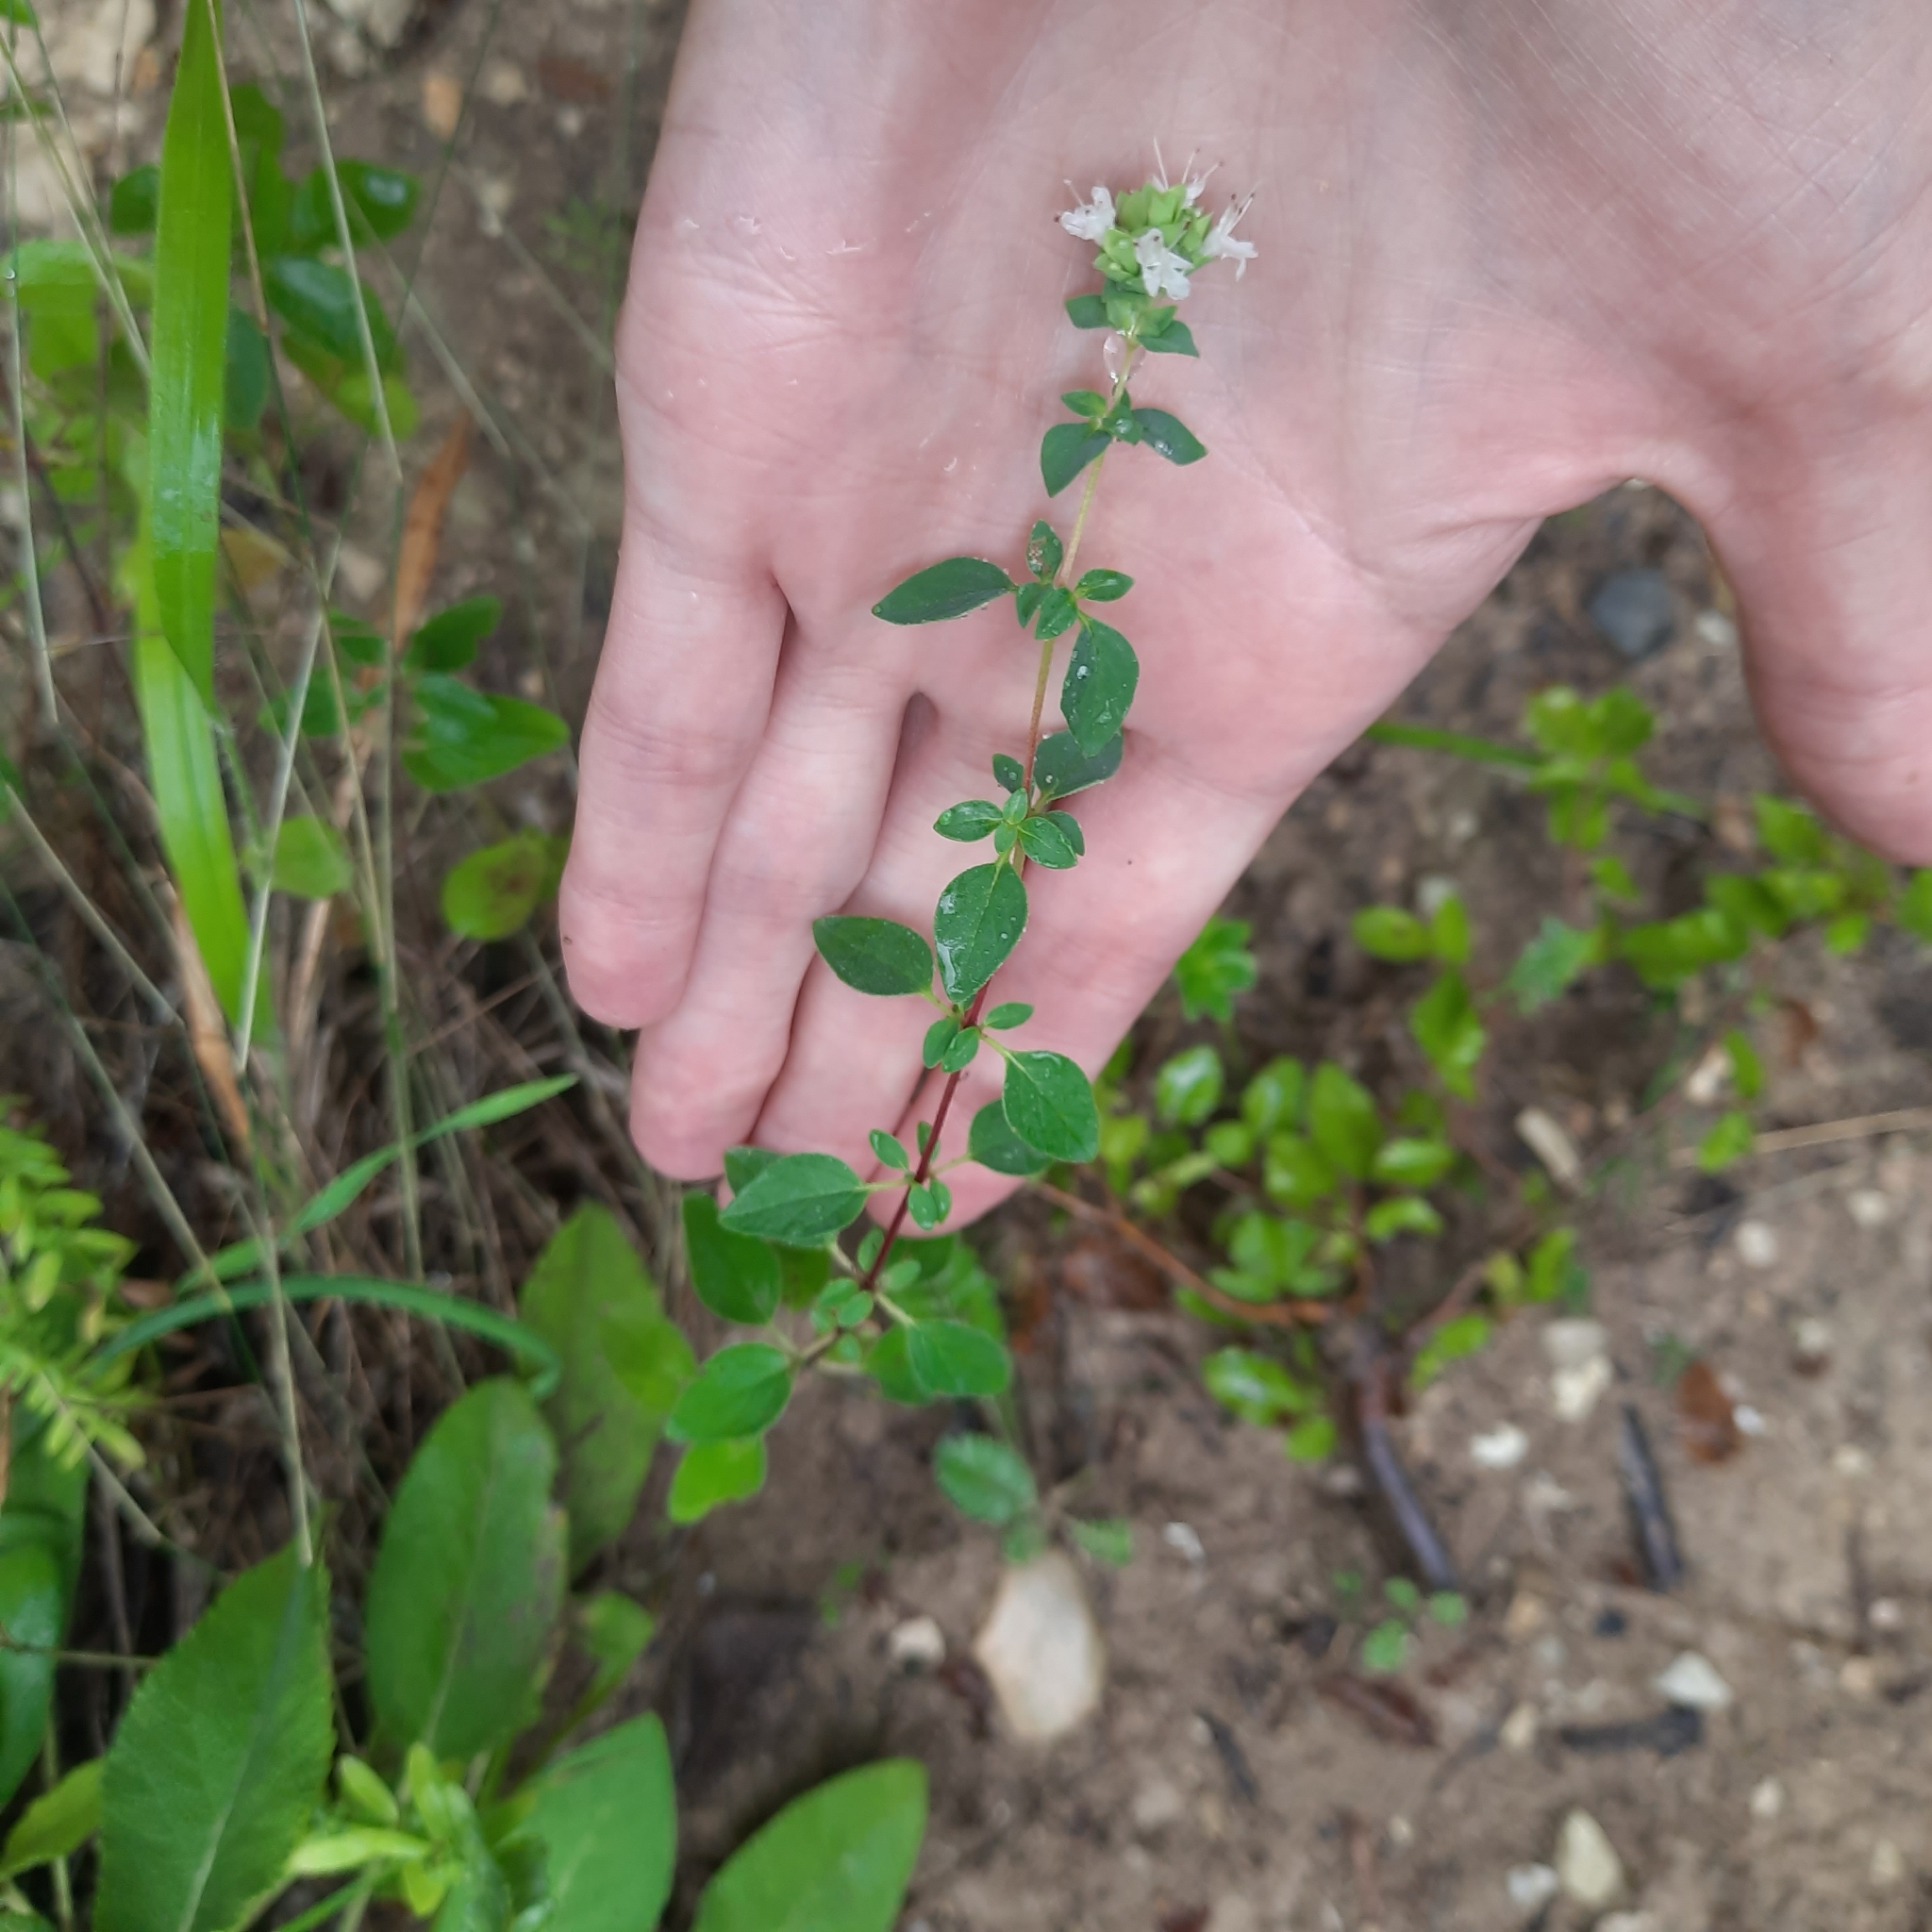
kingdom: Plantae
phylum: Tracheophyta
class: Magnoliopsida
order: Lamiales
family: Lamiaceae
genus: Origanum
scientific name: Origanum vulgare
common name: Wild marjoram
